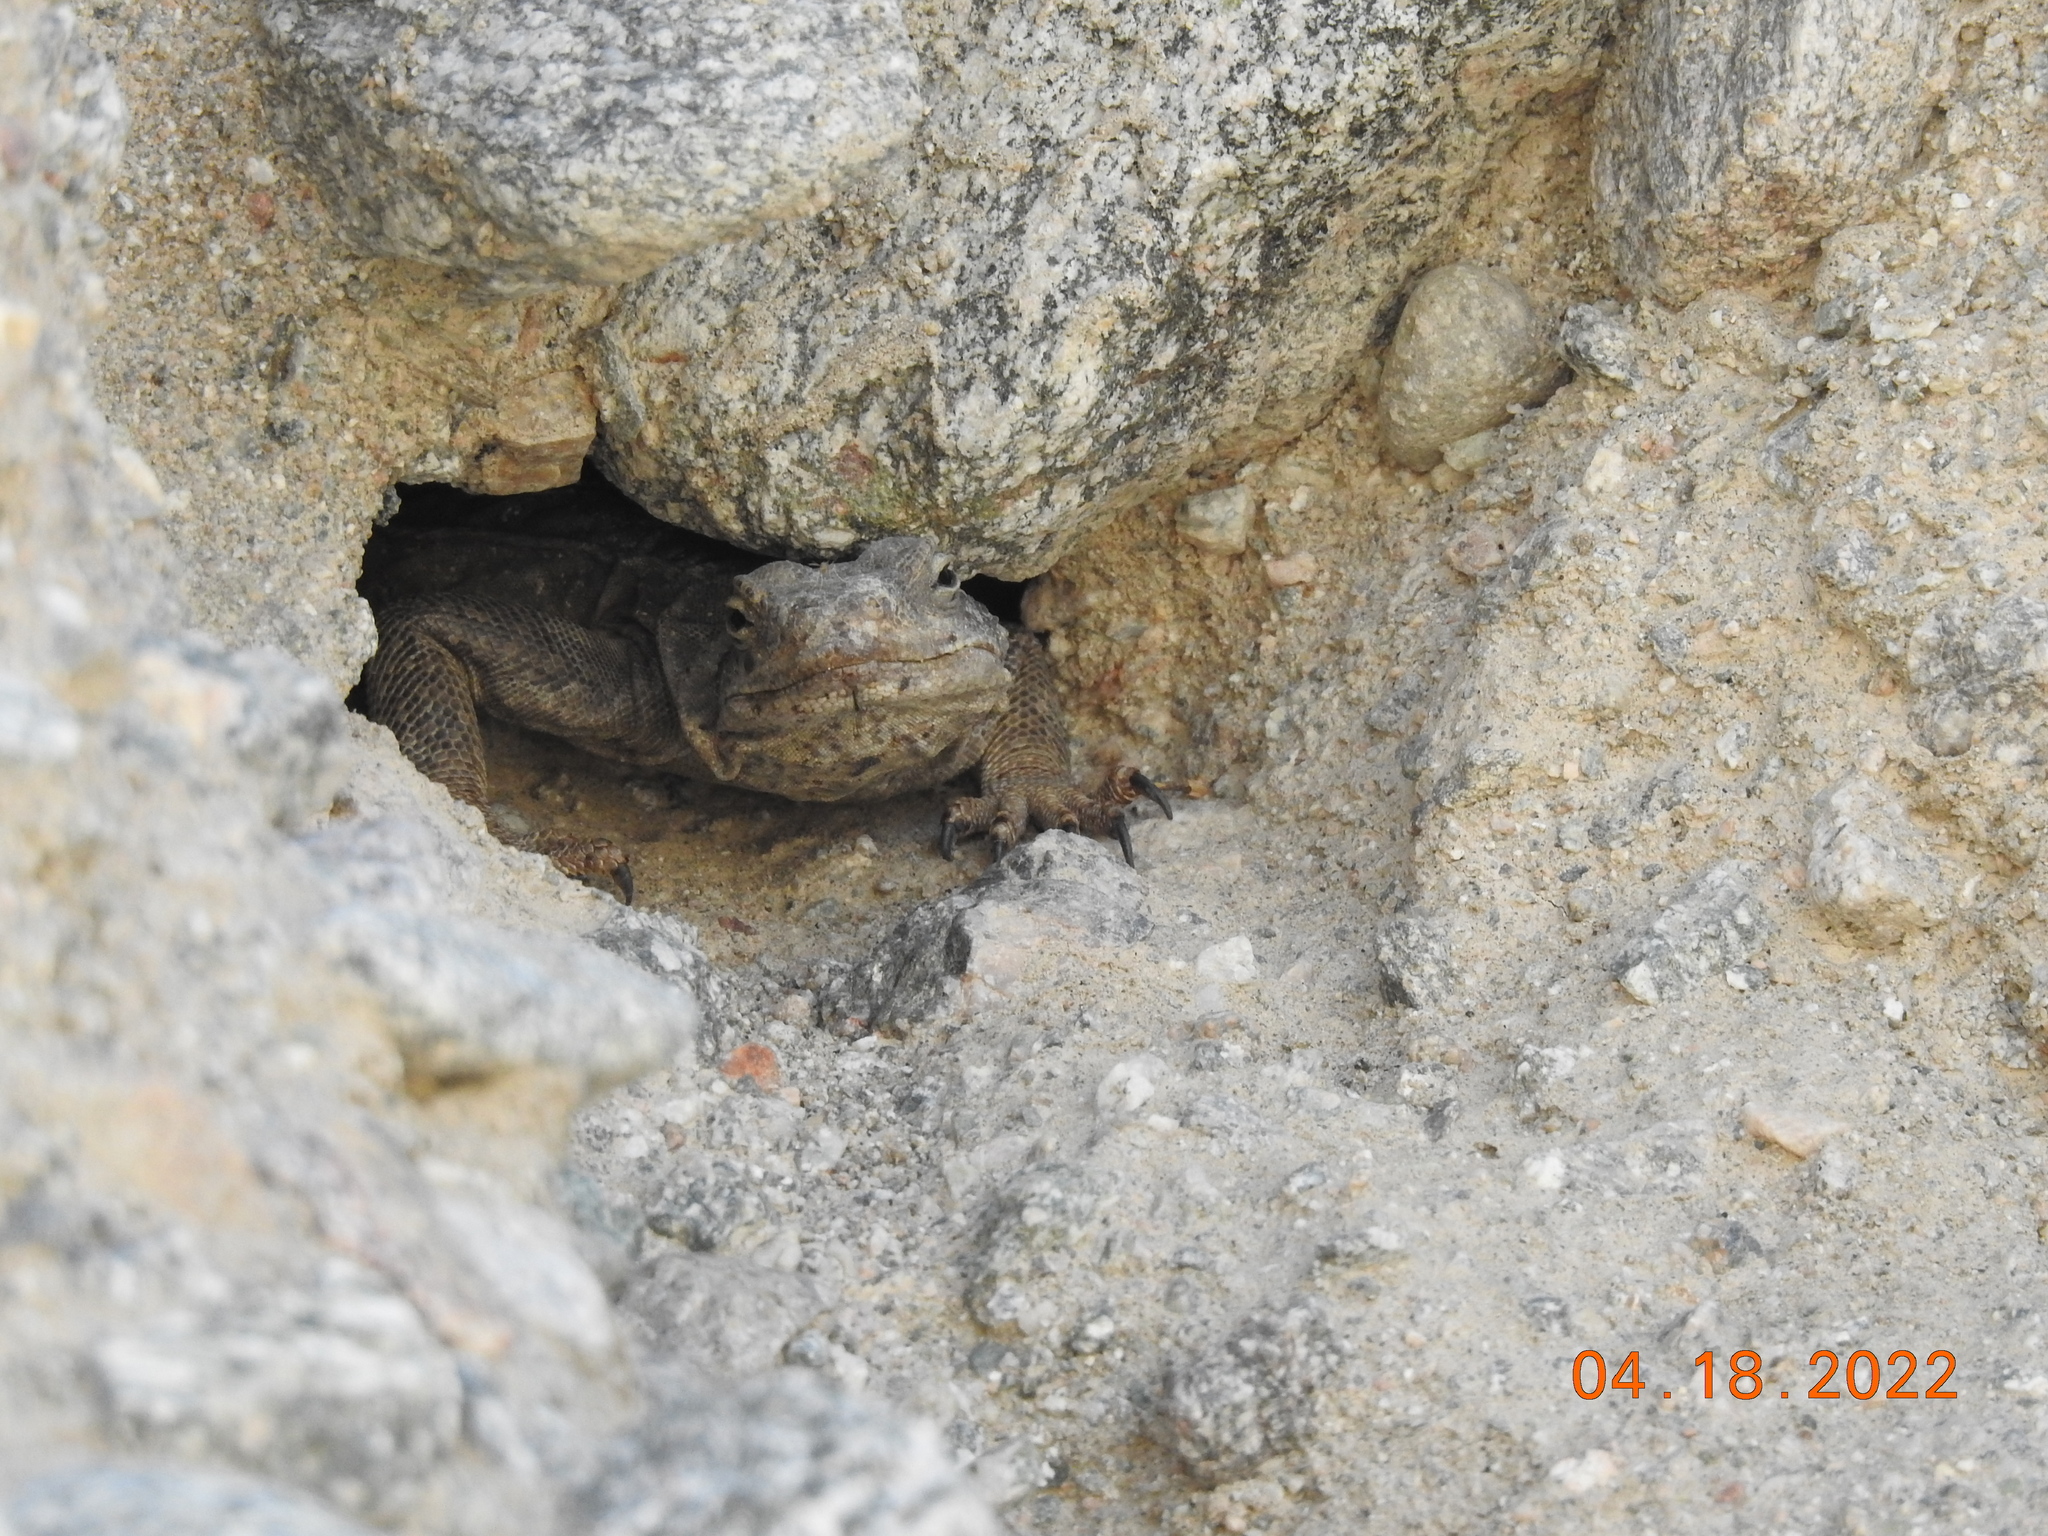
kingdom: Animalia
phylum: Chordata
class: Squamata
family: Iguanidae
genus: Sauromalus
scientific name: Sauromalus ater
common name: Northern chuckwalla
